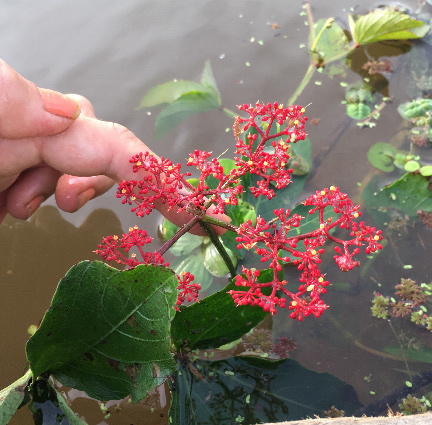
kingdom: Plantae
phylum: Tracheophyta
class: Magnoliopsida
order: Vitales
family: Vitaceae
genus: Cissus
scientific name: Cissus erosa
